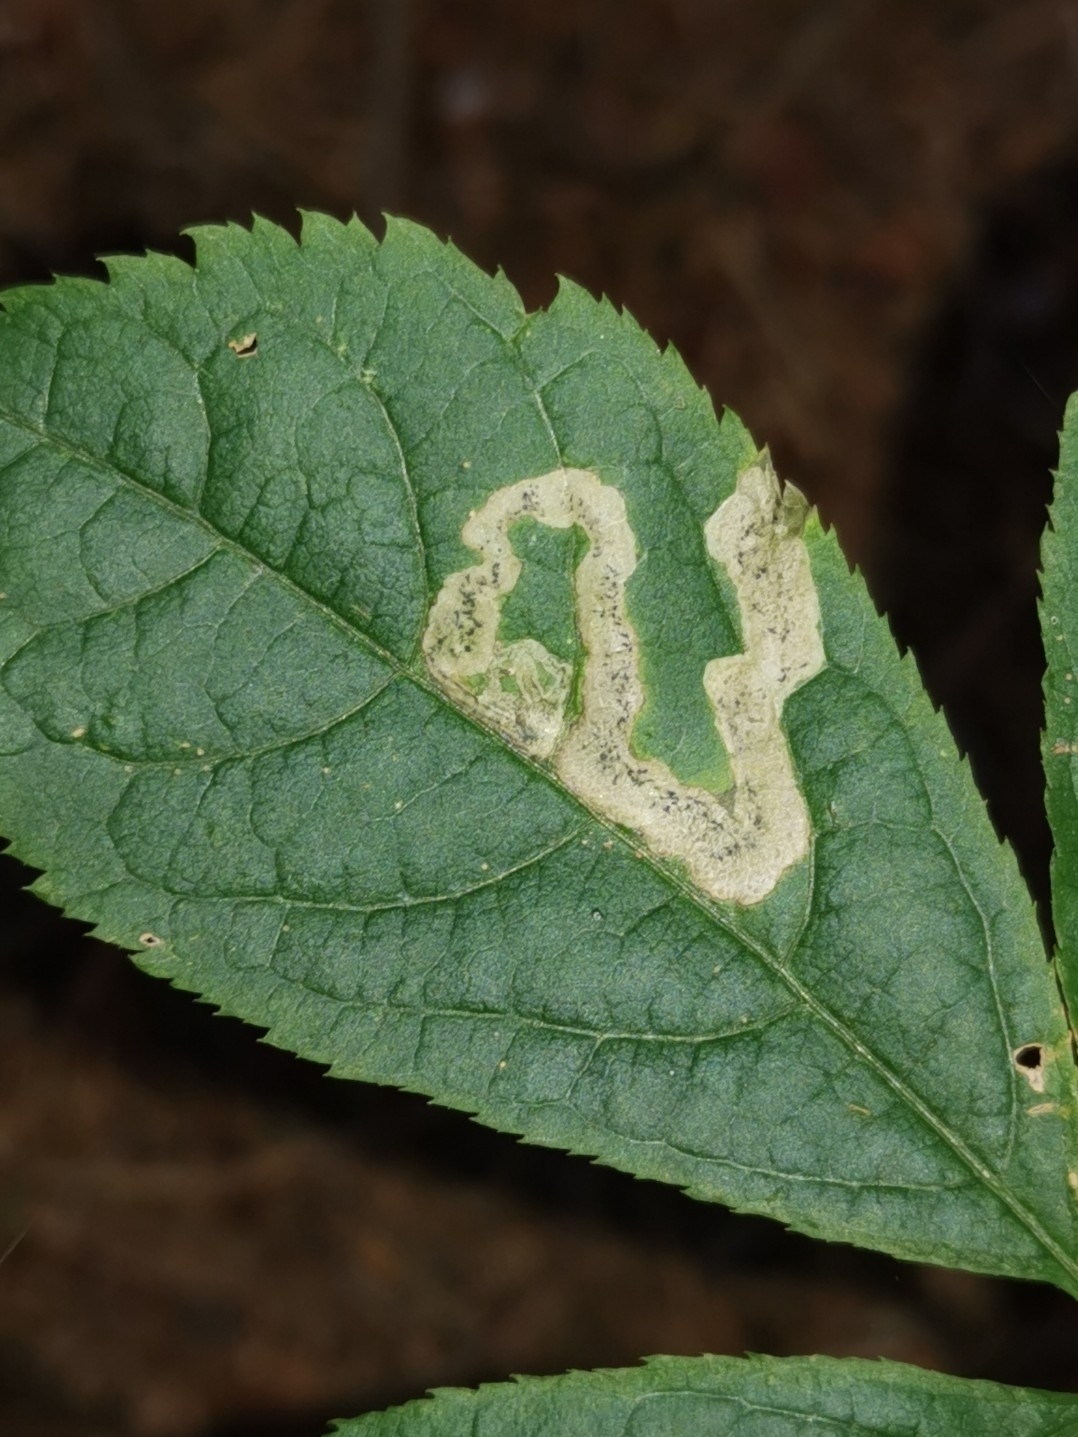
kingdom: Animalia
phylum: Arthropoda
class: Insecta
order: Diptera
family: Agromyzidae
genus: Phytomyza
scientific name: Phytomyza aralivora
